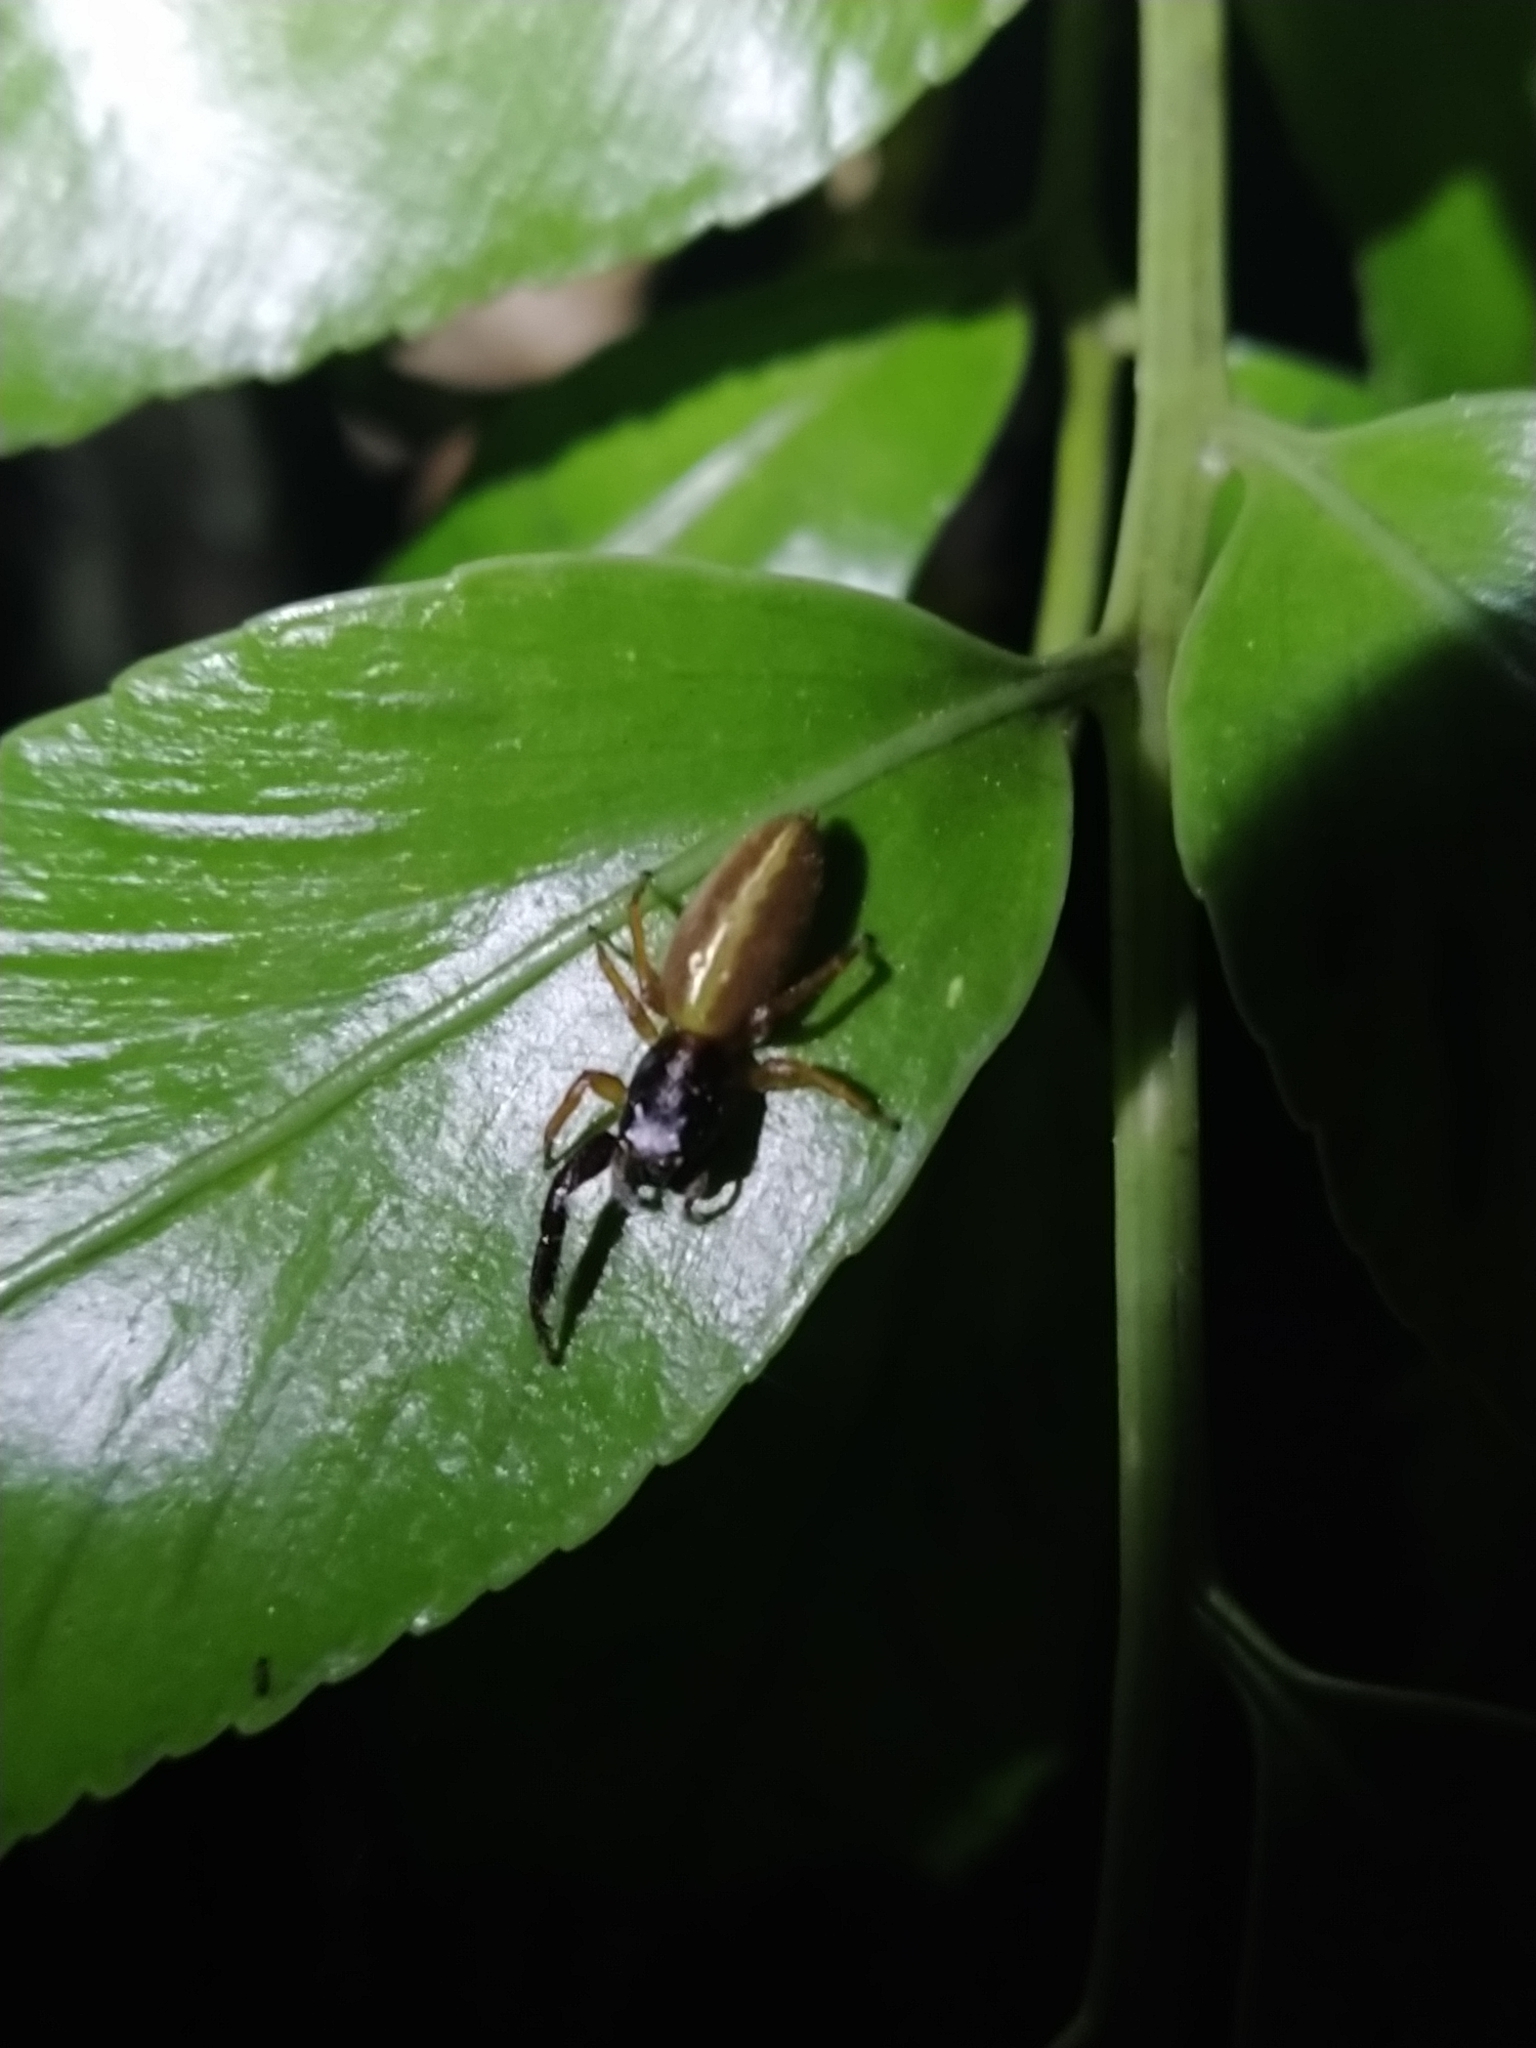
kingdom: Animalia
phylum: Arthropoda
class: Arachnida
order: Araneae
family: Salticidae
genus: Trite
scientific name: Trite planiceps
